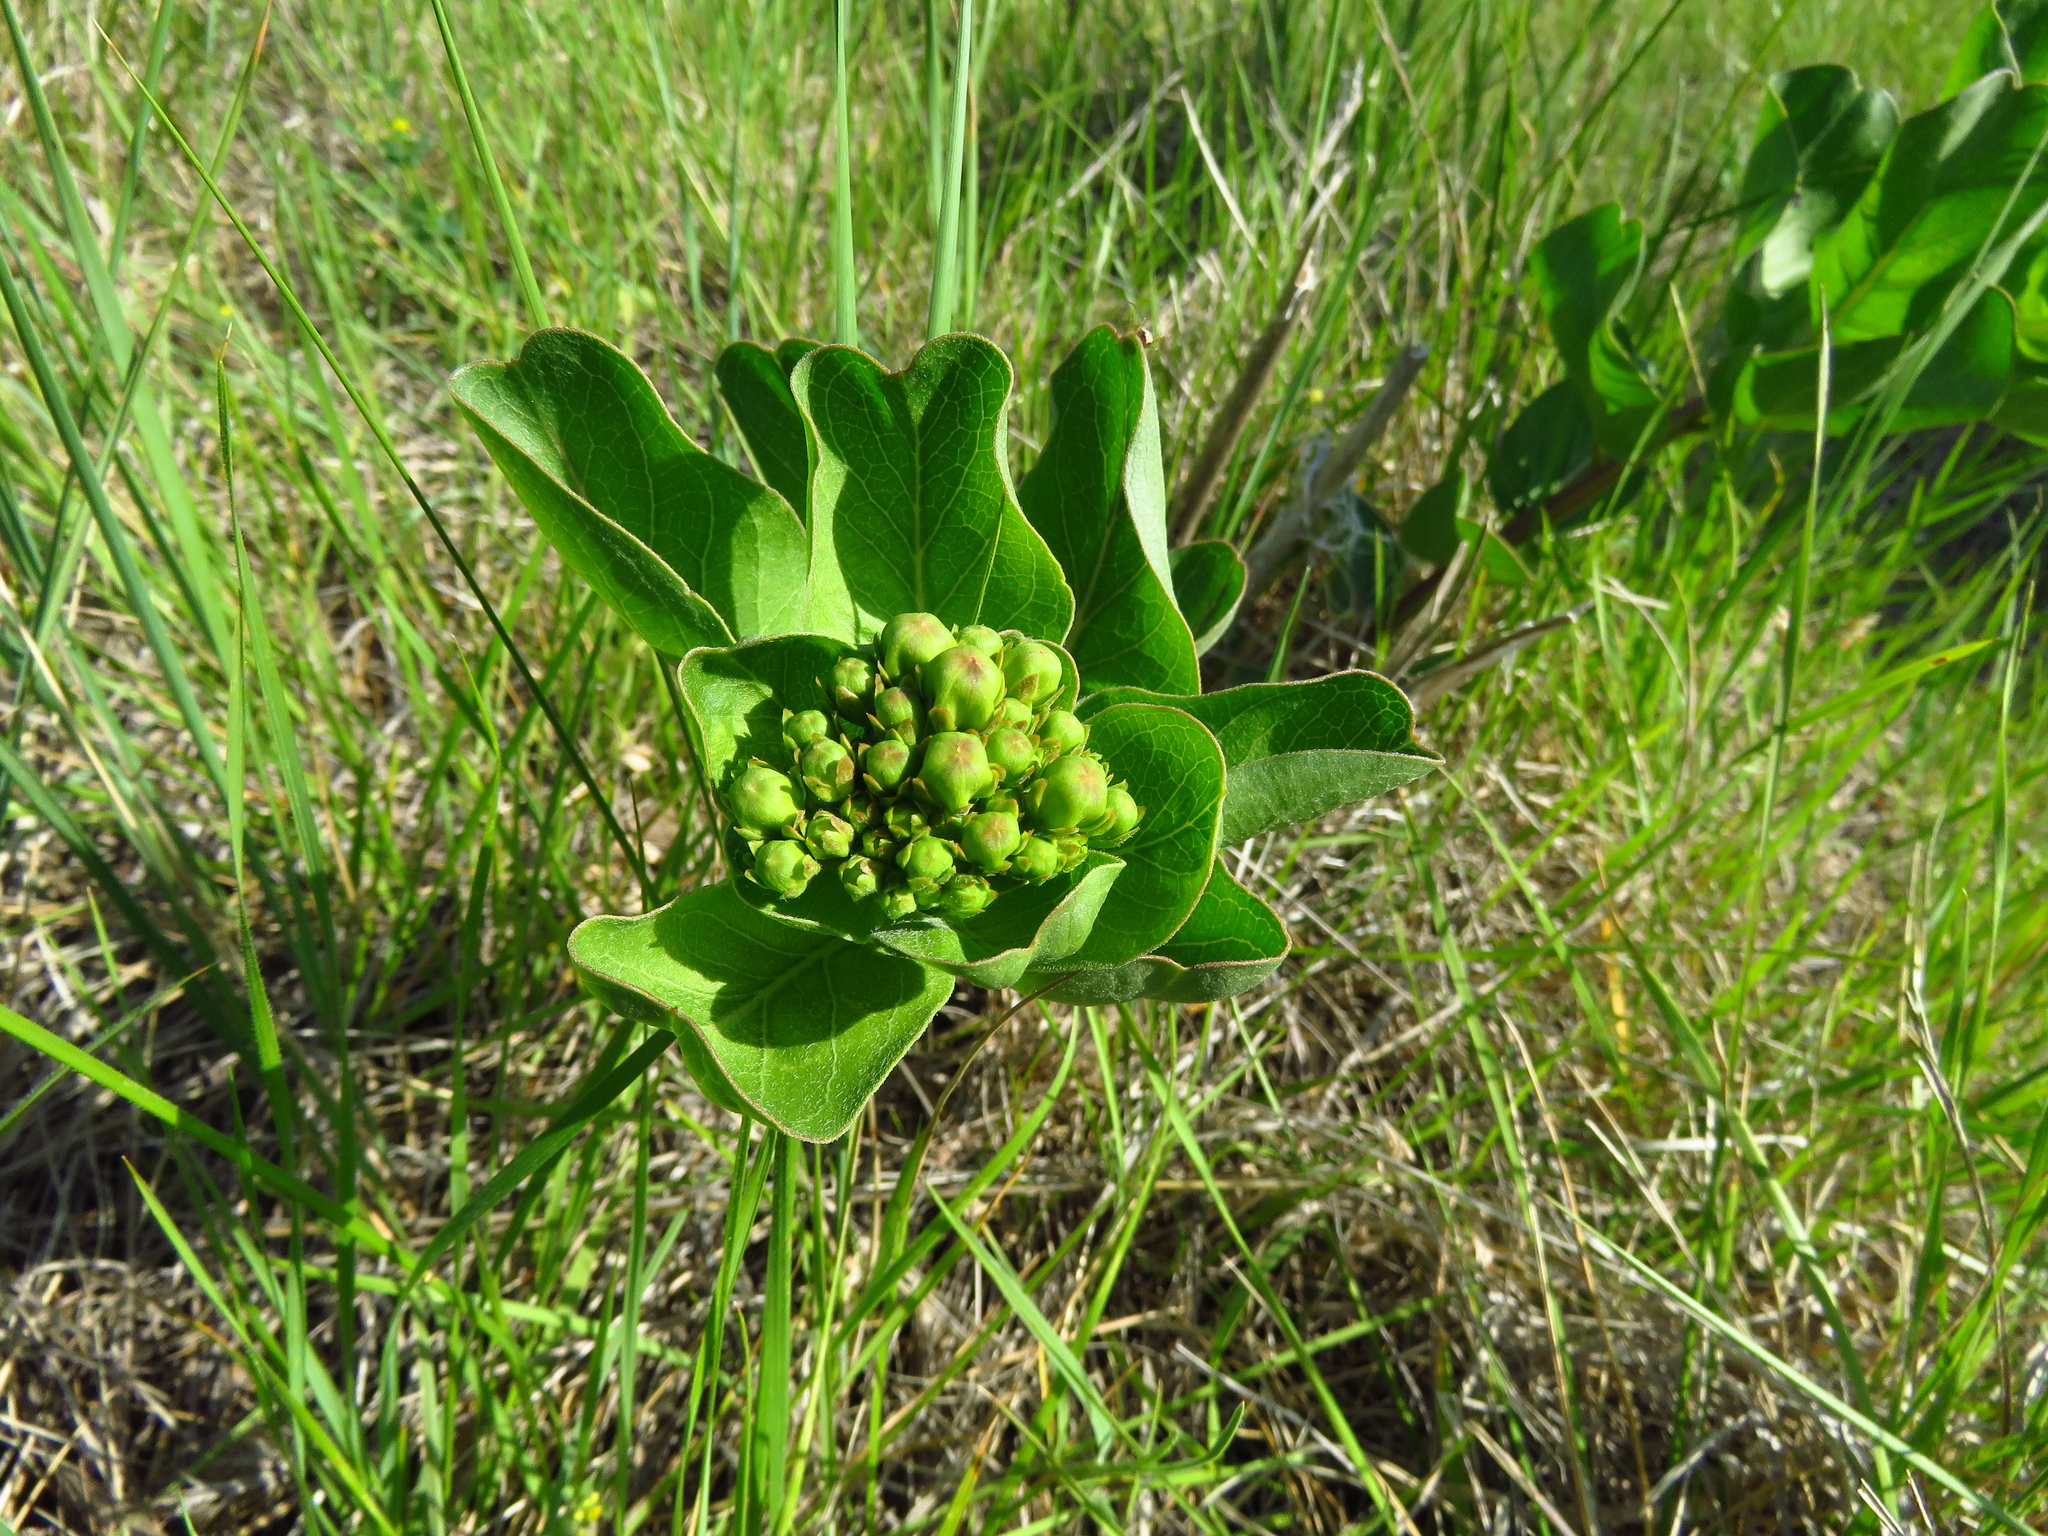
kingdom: Plantae
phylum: Tracheophyta
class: Magnoliopsida
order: Gentianales
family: Apocynaceae
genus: Asclepias
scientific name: Asclepias viridis
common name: Antelope-horns
